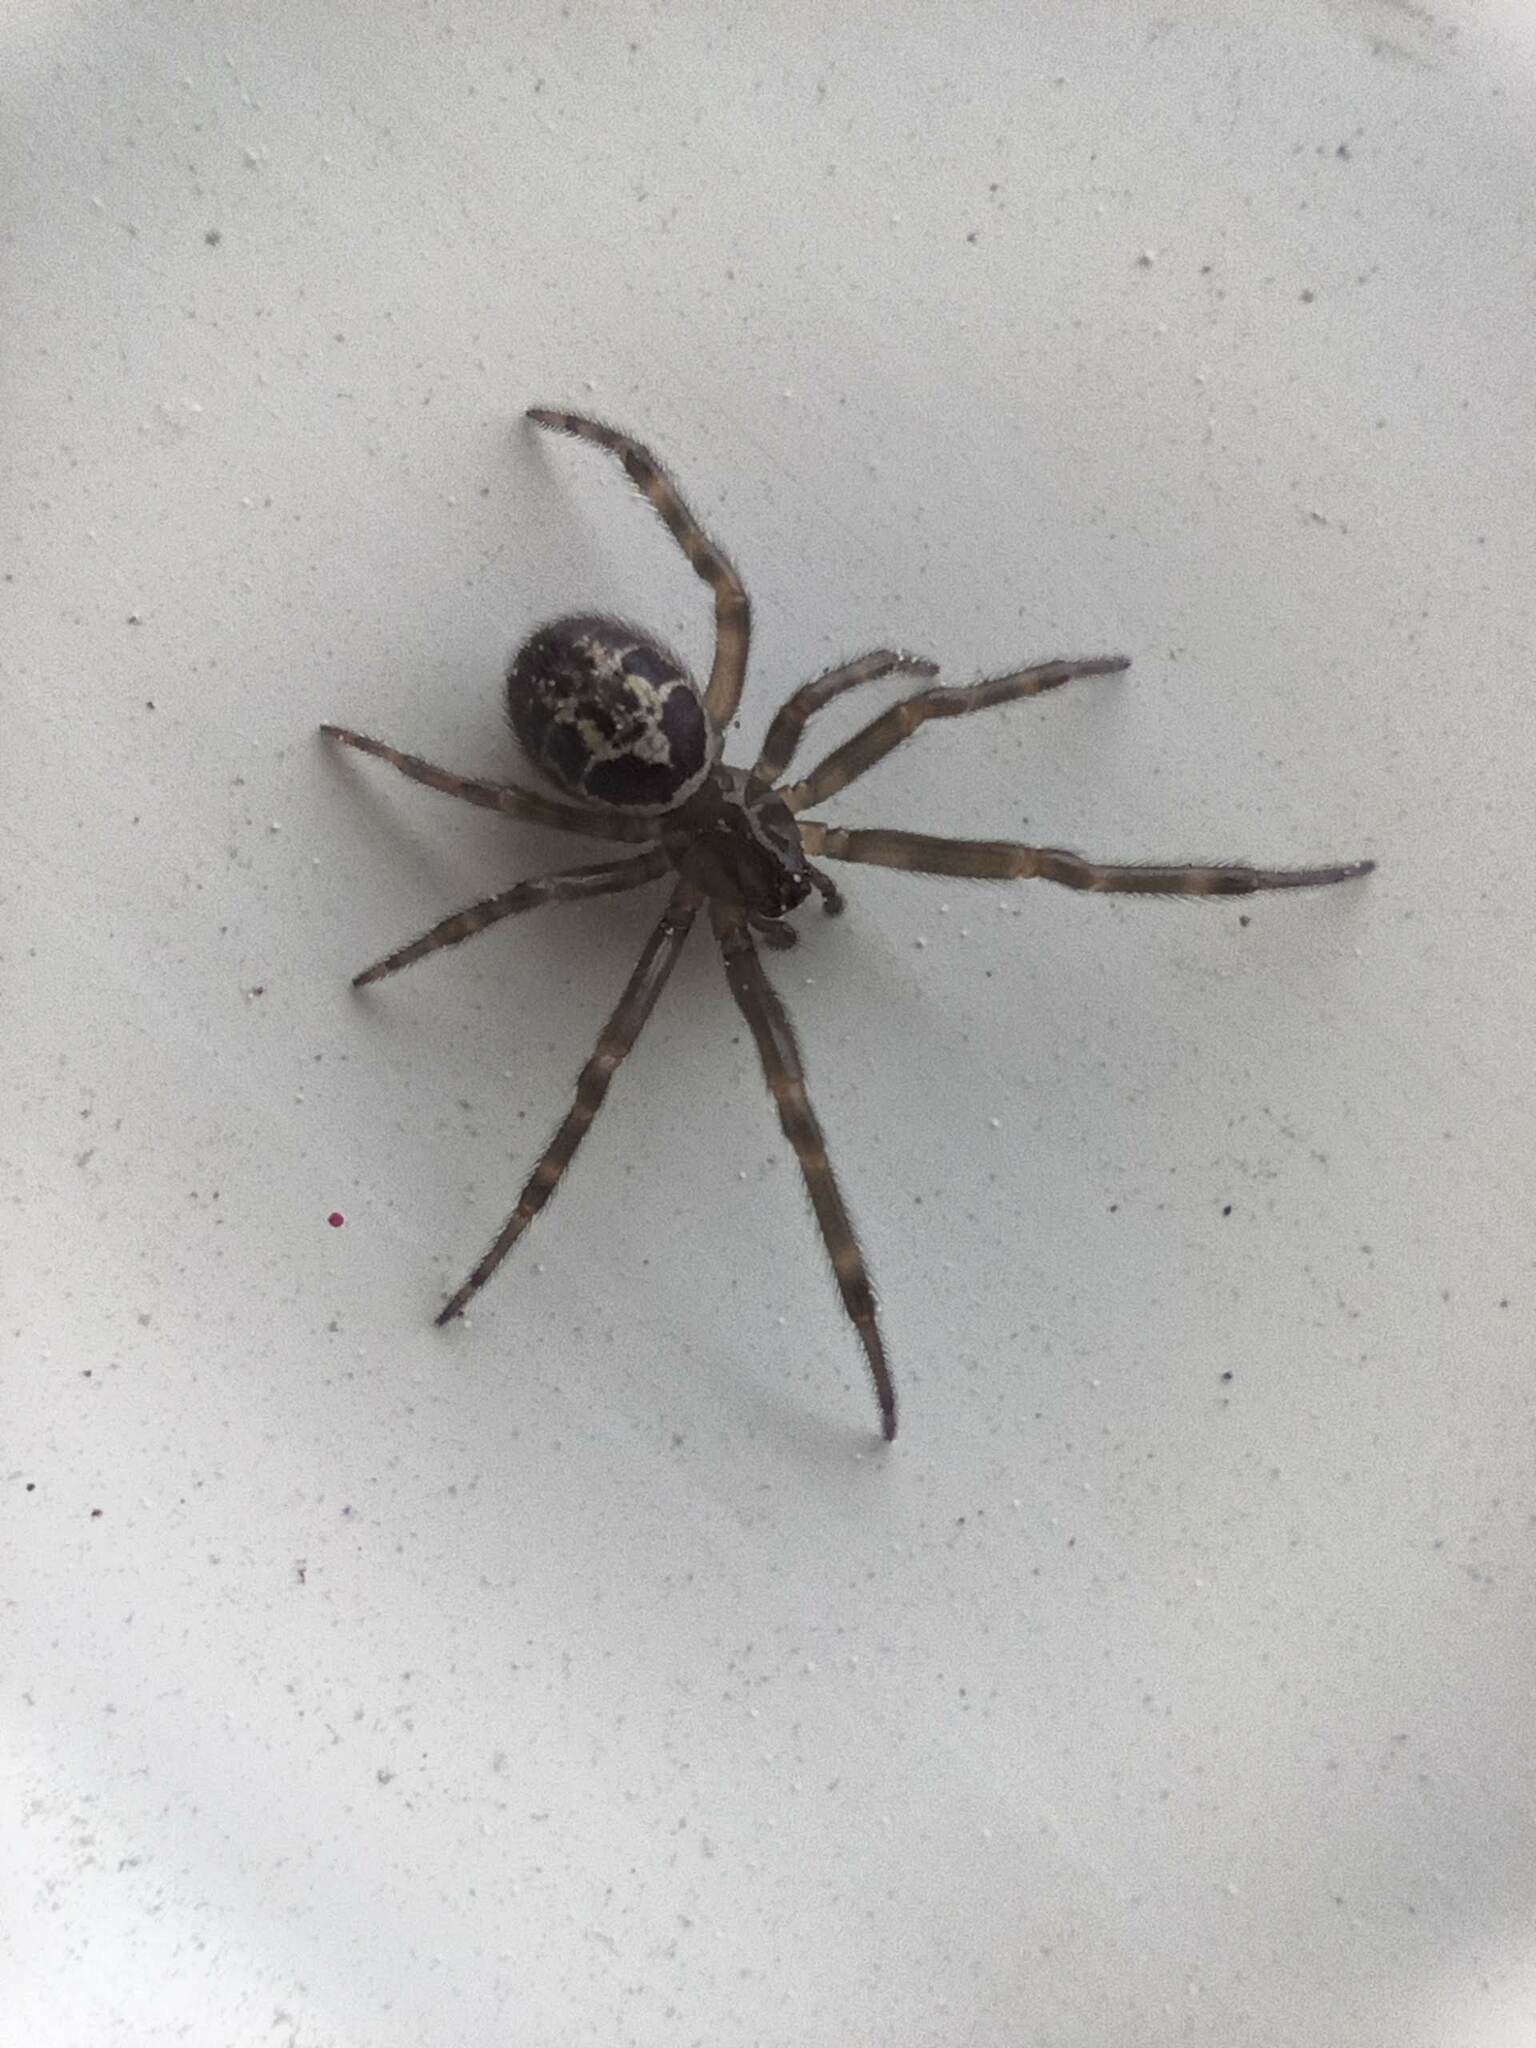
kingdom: Animalia
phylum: Arthropoda
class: Arachnida
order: Araneae
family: Theridiidae
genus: Steatoda
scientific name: Steatoda nobilis
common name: Cobweb weaver
